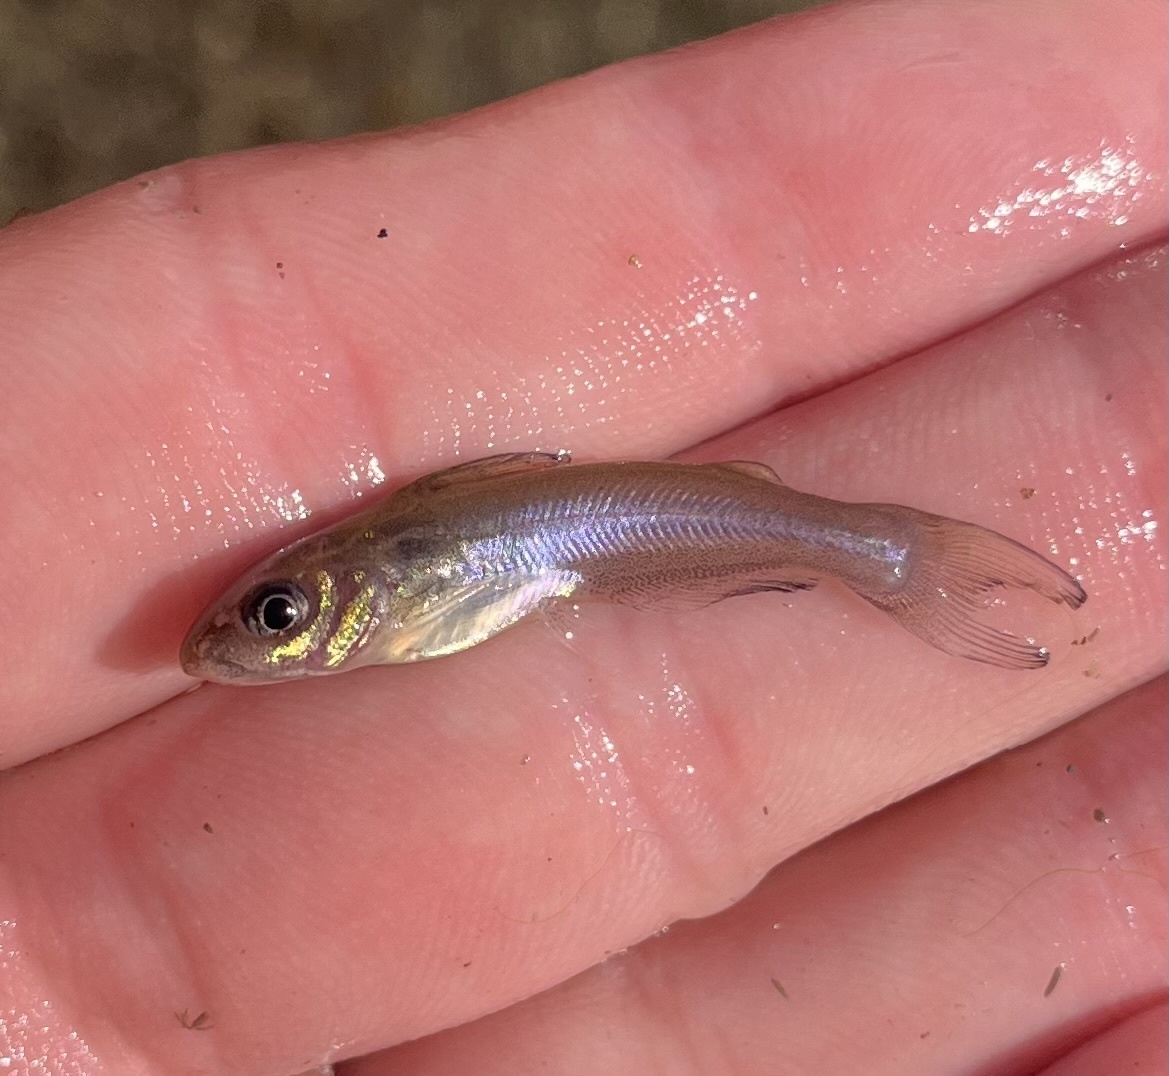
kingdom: Animalia
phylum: Chordata
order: Siluriformes
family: Ictaluridae
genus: Ictalurus
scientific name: Ictalurus punctatus
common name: Channel catfish
